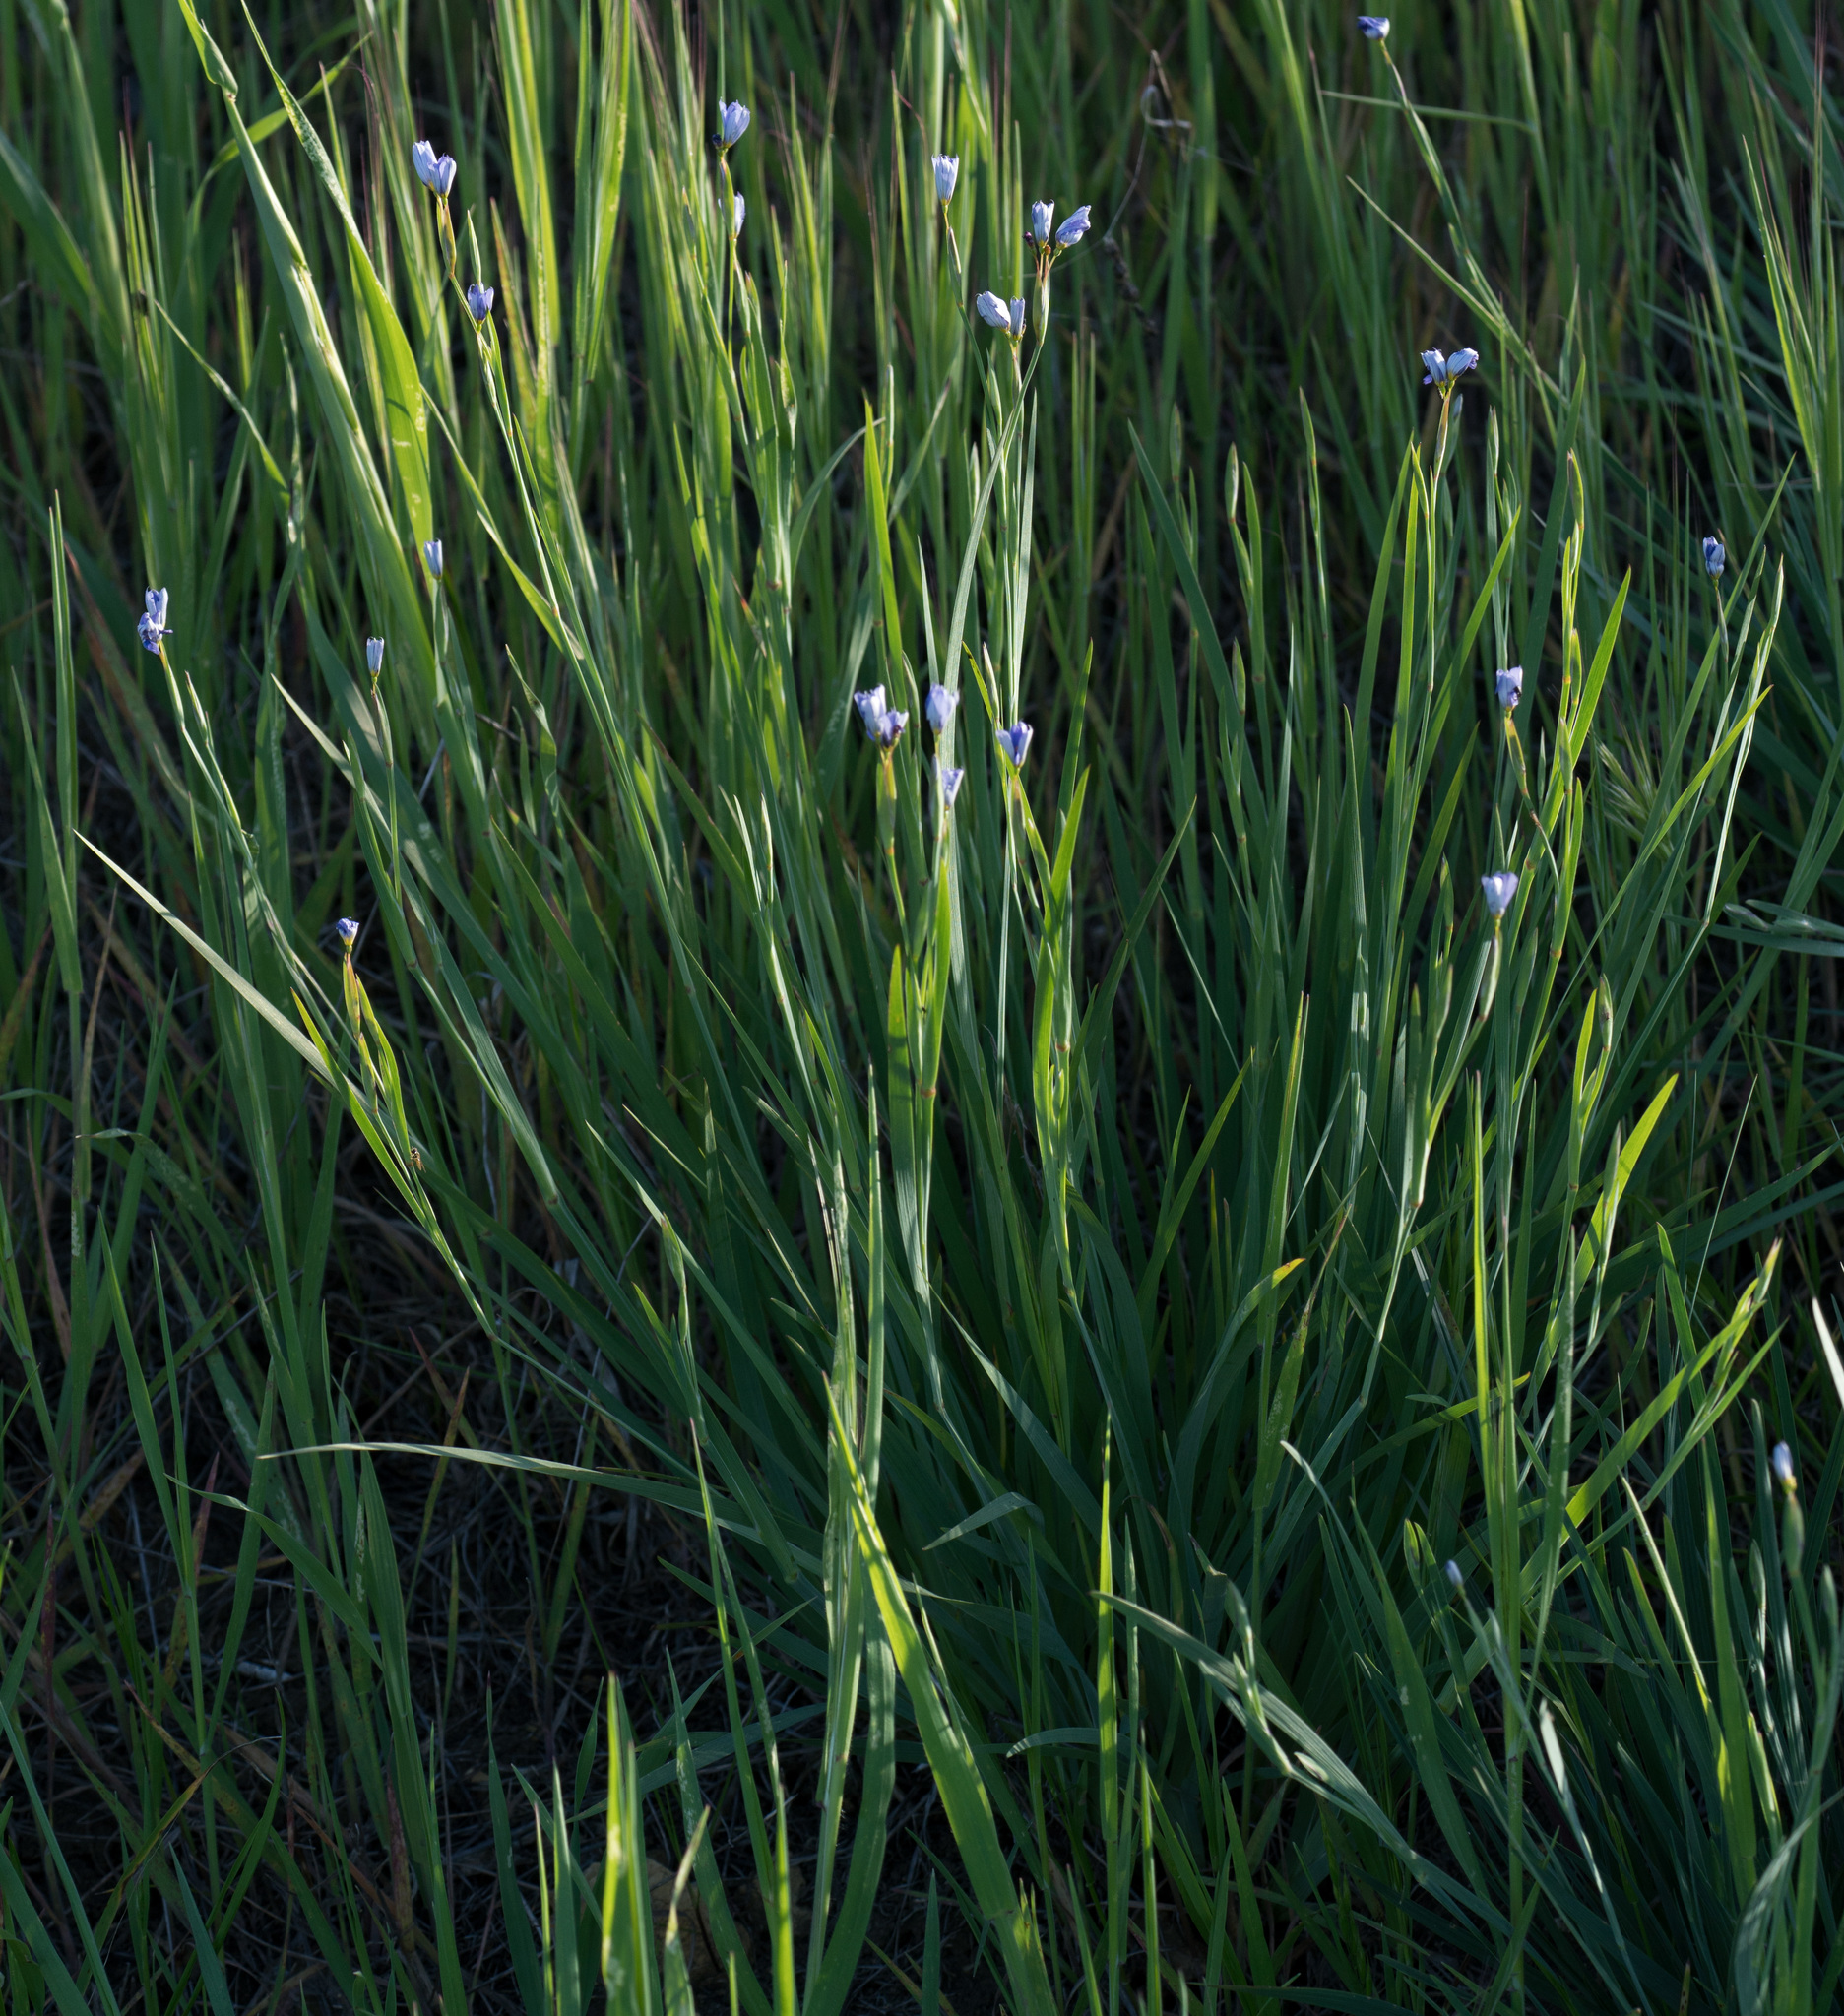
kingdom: Plantae
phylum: Tracheophyta
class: Liliopsida
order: Asparagales
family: Iridaceae
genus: Sisyrinchium
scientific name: Sisyrinchium bellum
